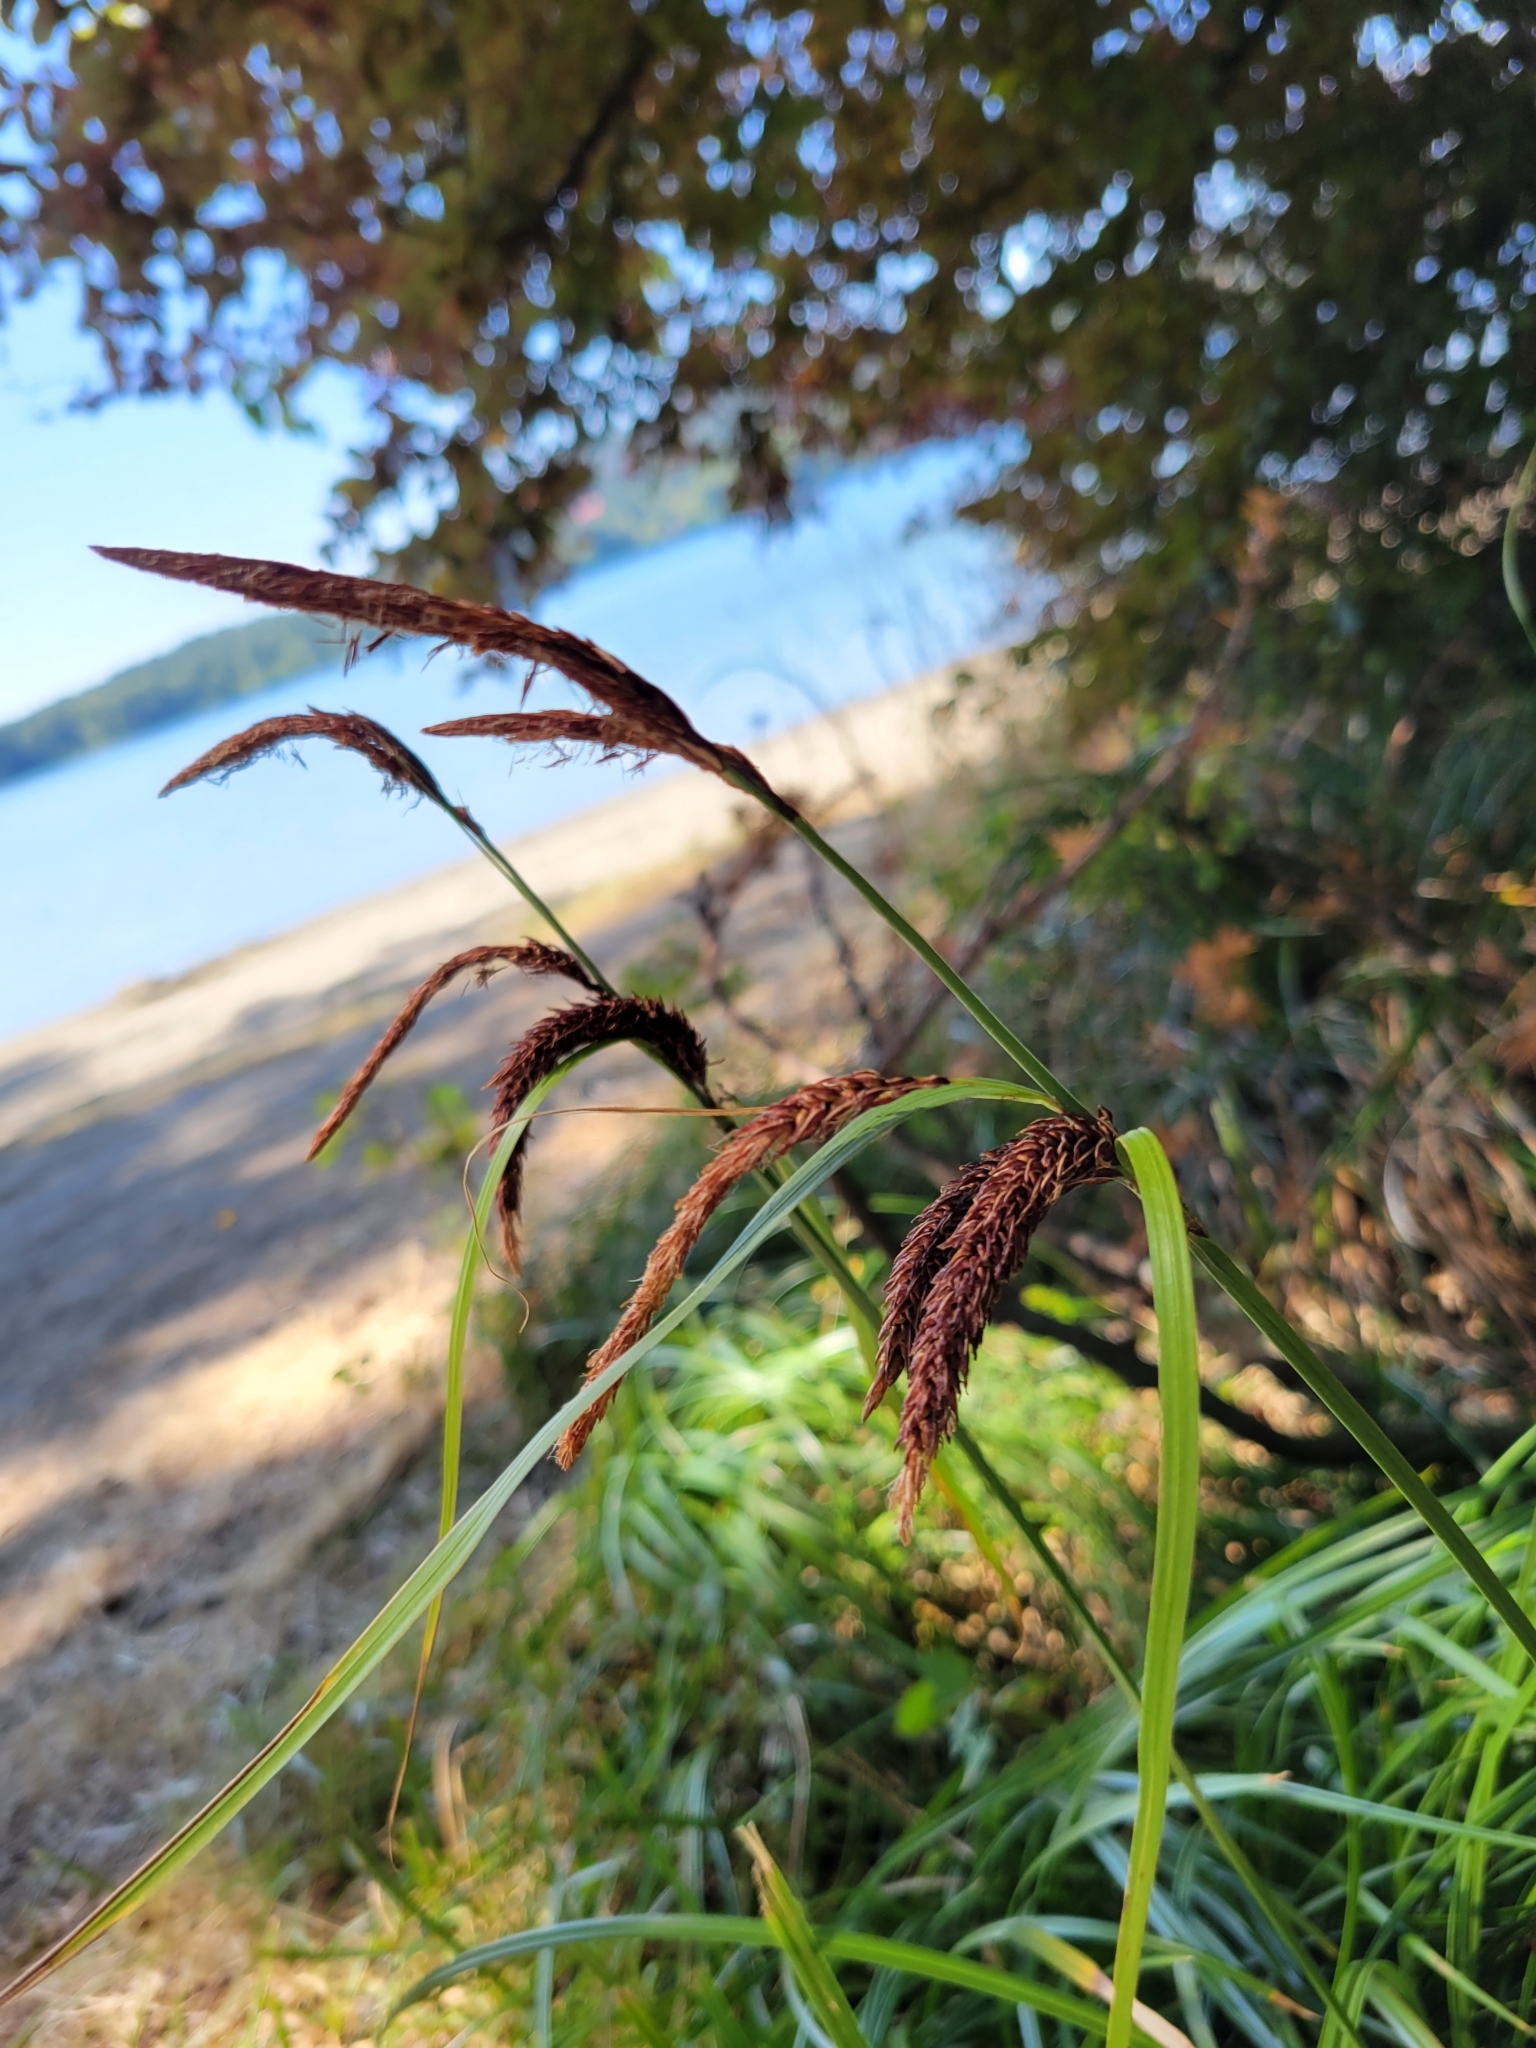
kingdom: Plantae
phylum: Tracheophyta
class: Liliopsida
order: Poales
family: Cyperaceae
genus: Carex
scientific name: Carex obnupta
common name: Slough sedge
